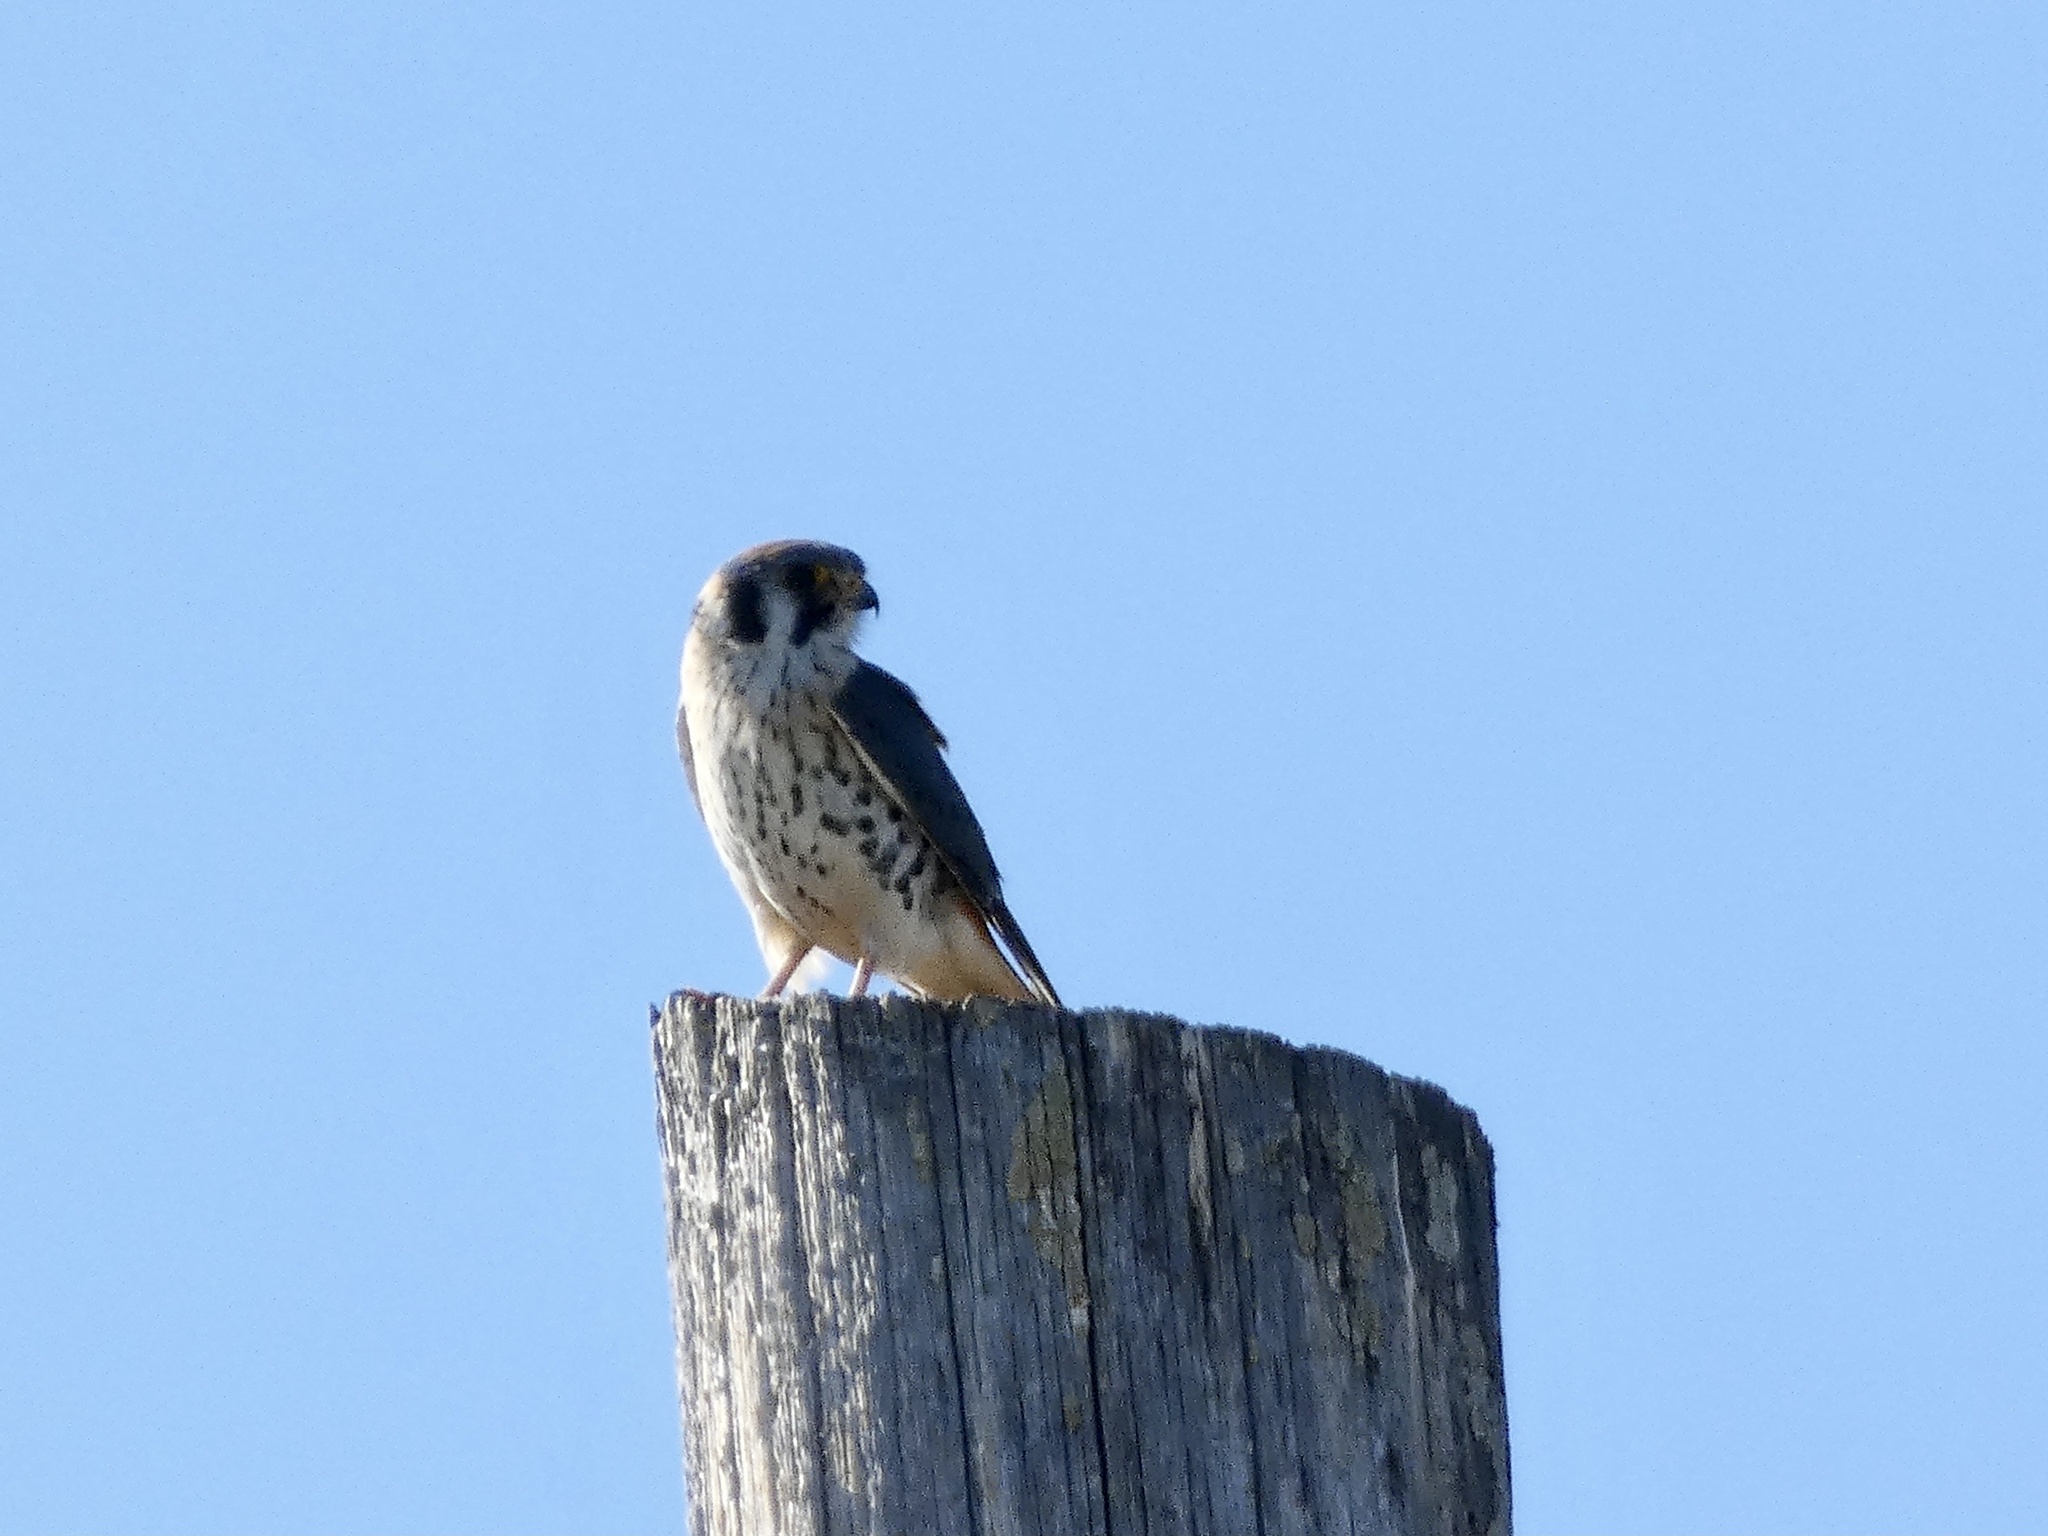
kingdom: Animalia
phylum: Chordata
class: Aves
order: Falconiformes
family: Falconidae
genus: Falco
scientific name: Falco sparverius
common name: American kestrel
